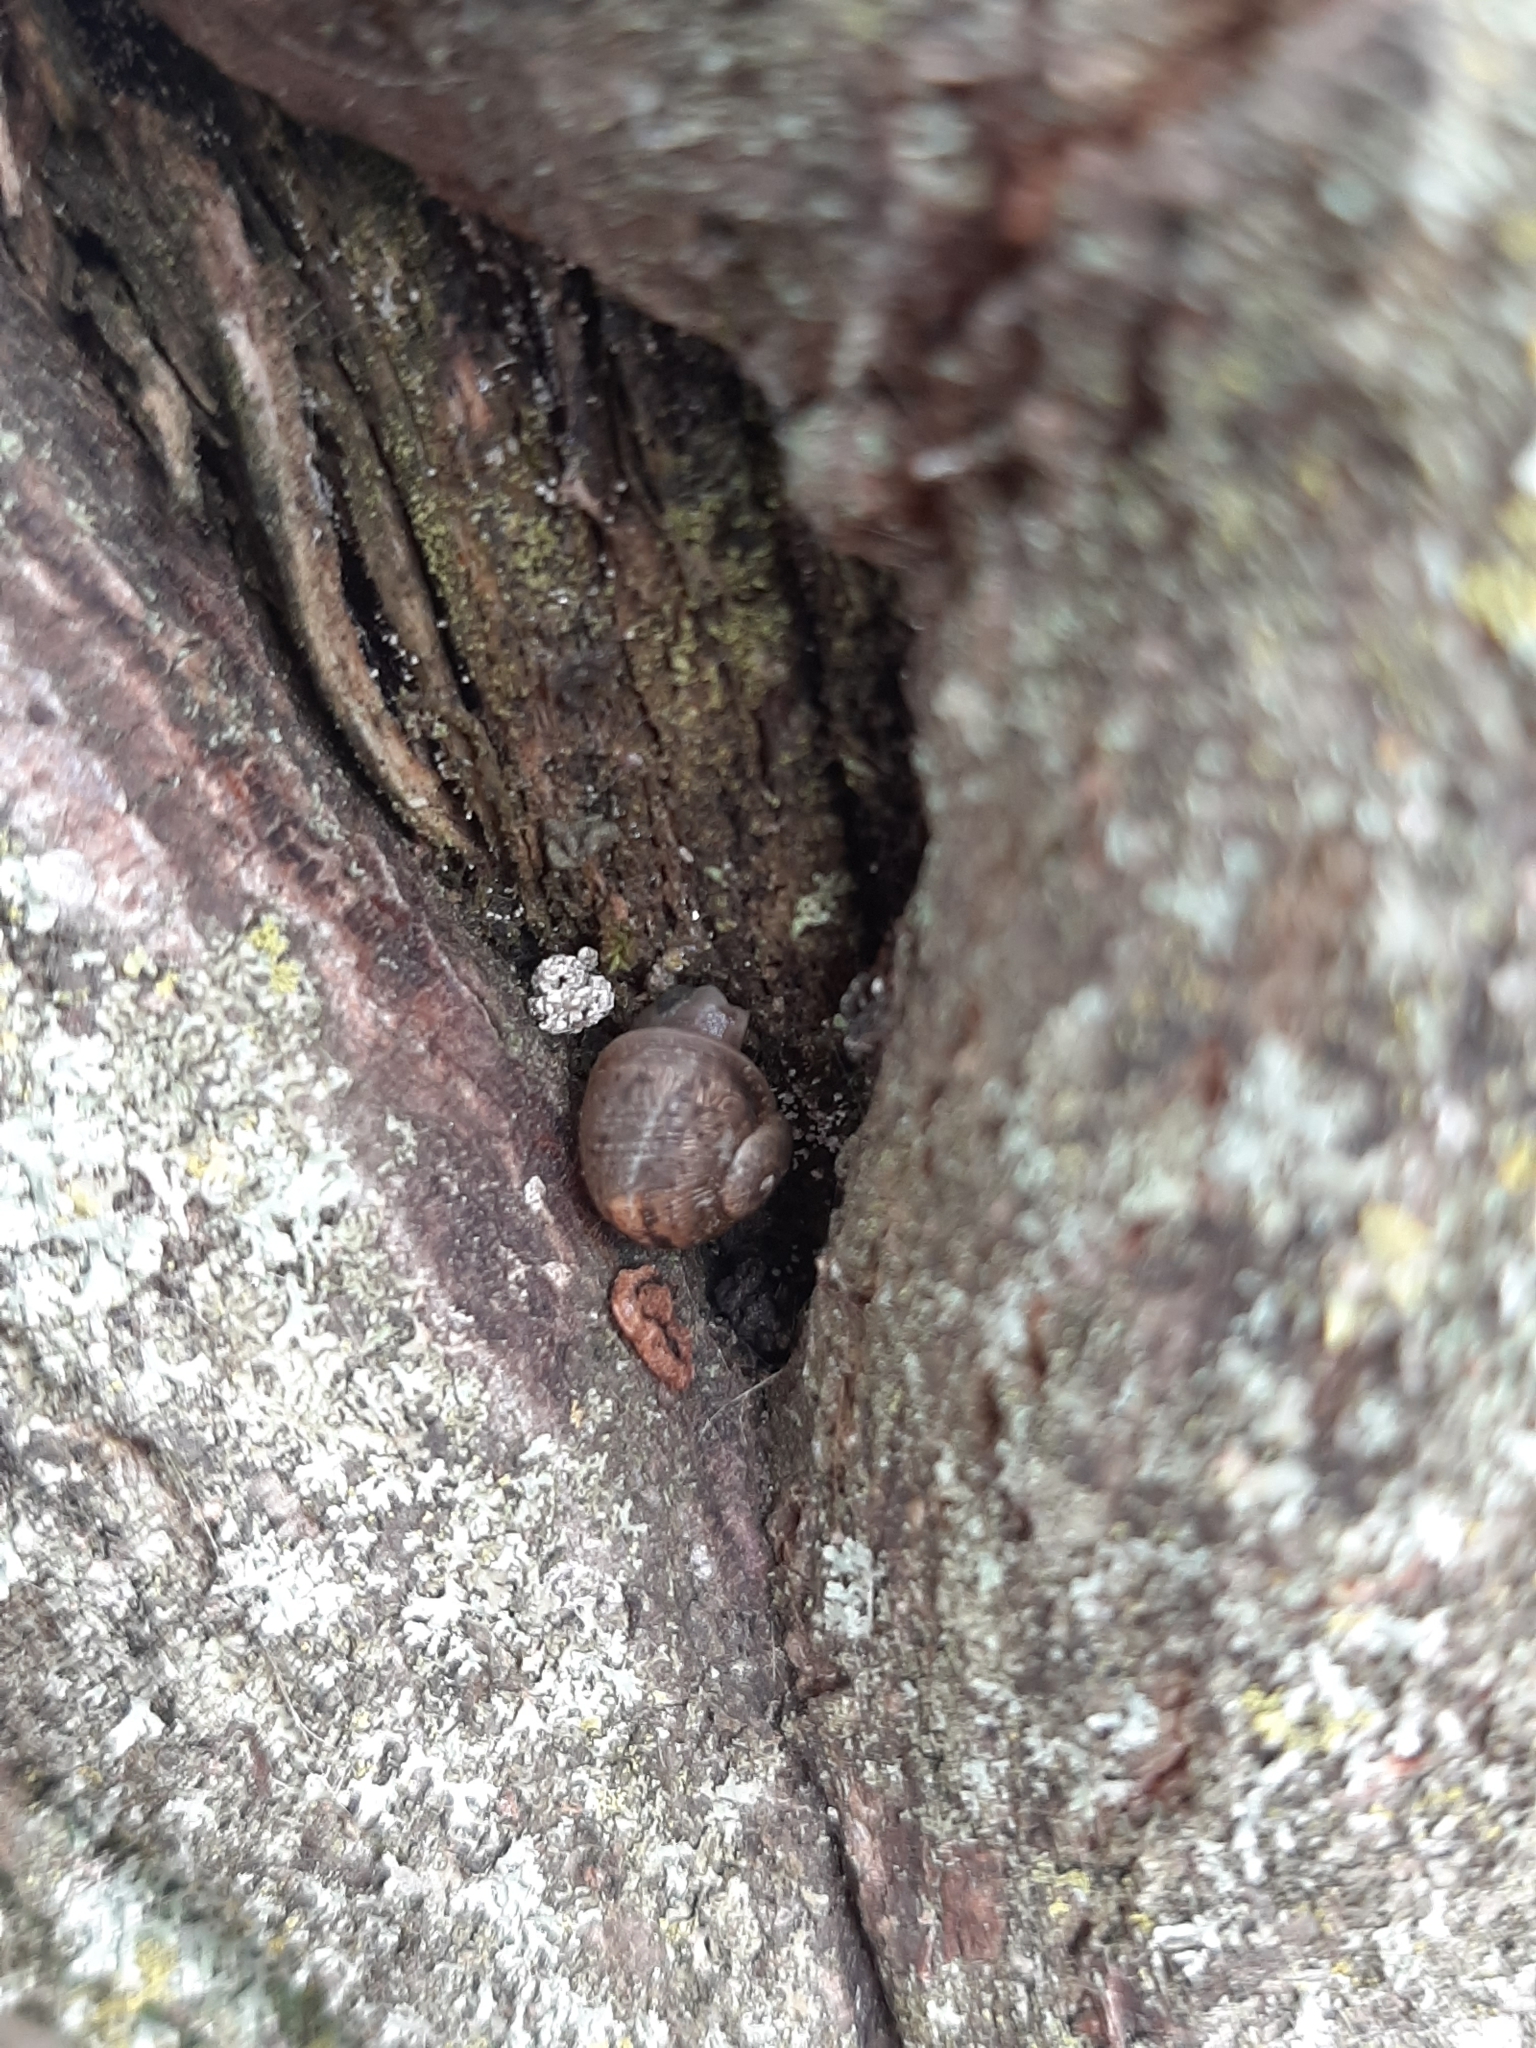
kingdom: Animalia
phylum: Mollusca
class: Gastropoda
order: Stylommatophora
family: Helicidae
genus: Cornu
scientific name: Cornu aspersum
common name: Brown garden snail
